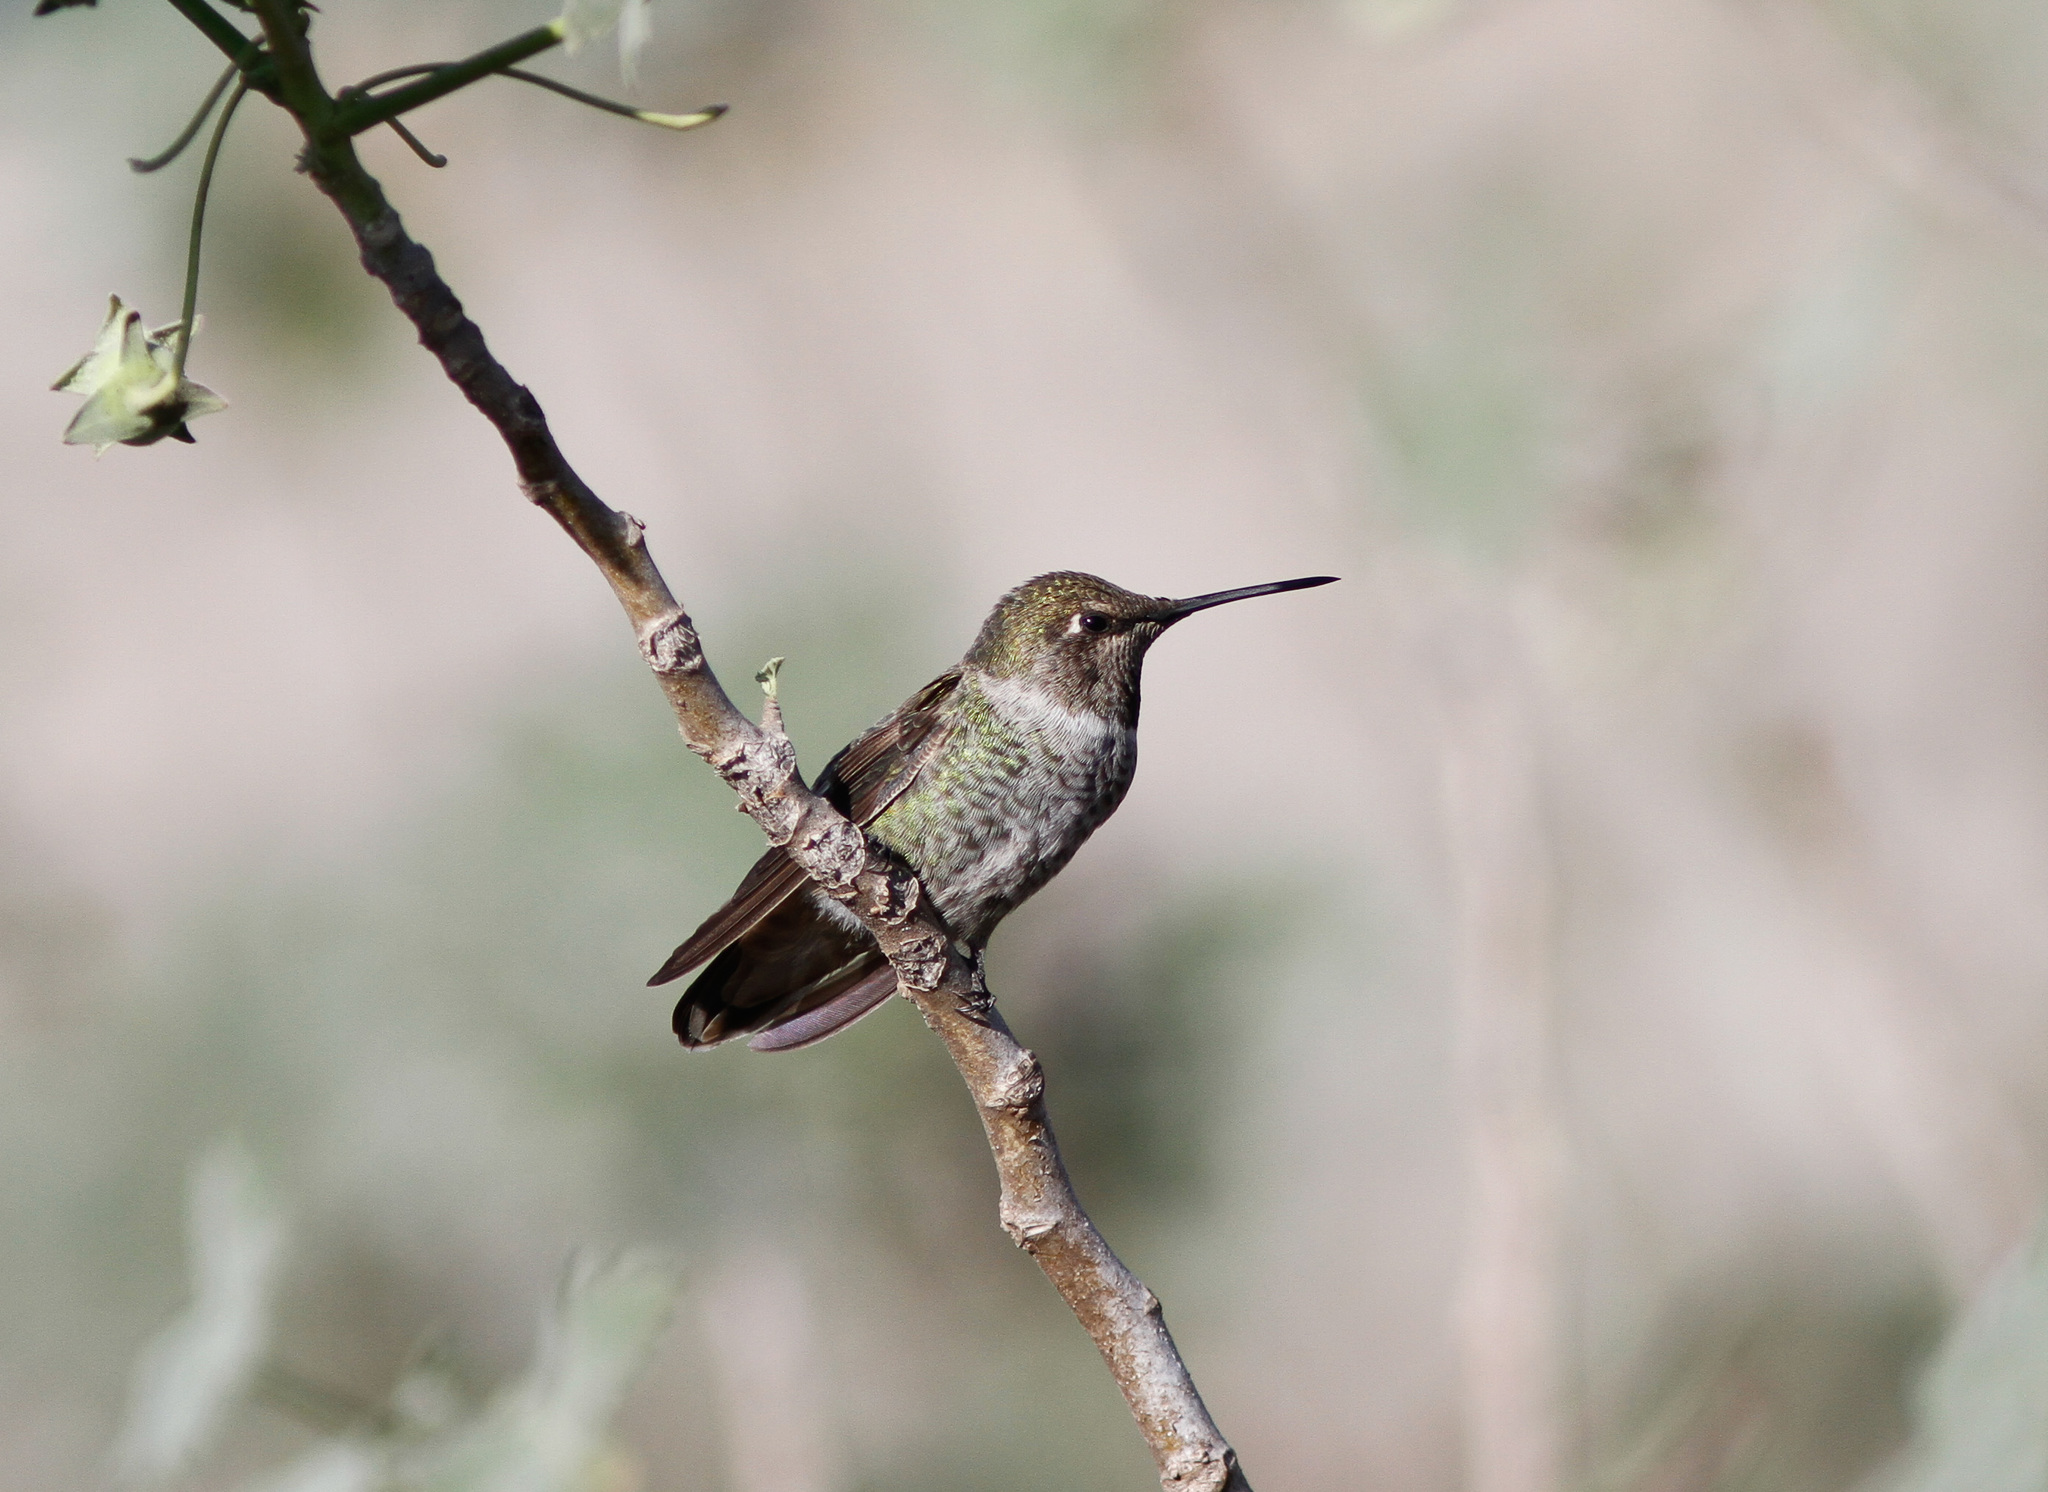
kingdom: Animalia
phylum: Chordata
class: Aves
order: Apodiformes
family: Trochilidae
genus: Calypte
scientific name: Calypte anna
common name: Anna's hummingbird
